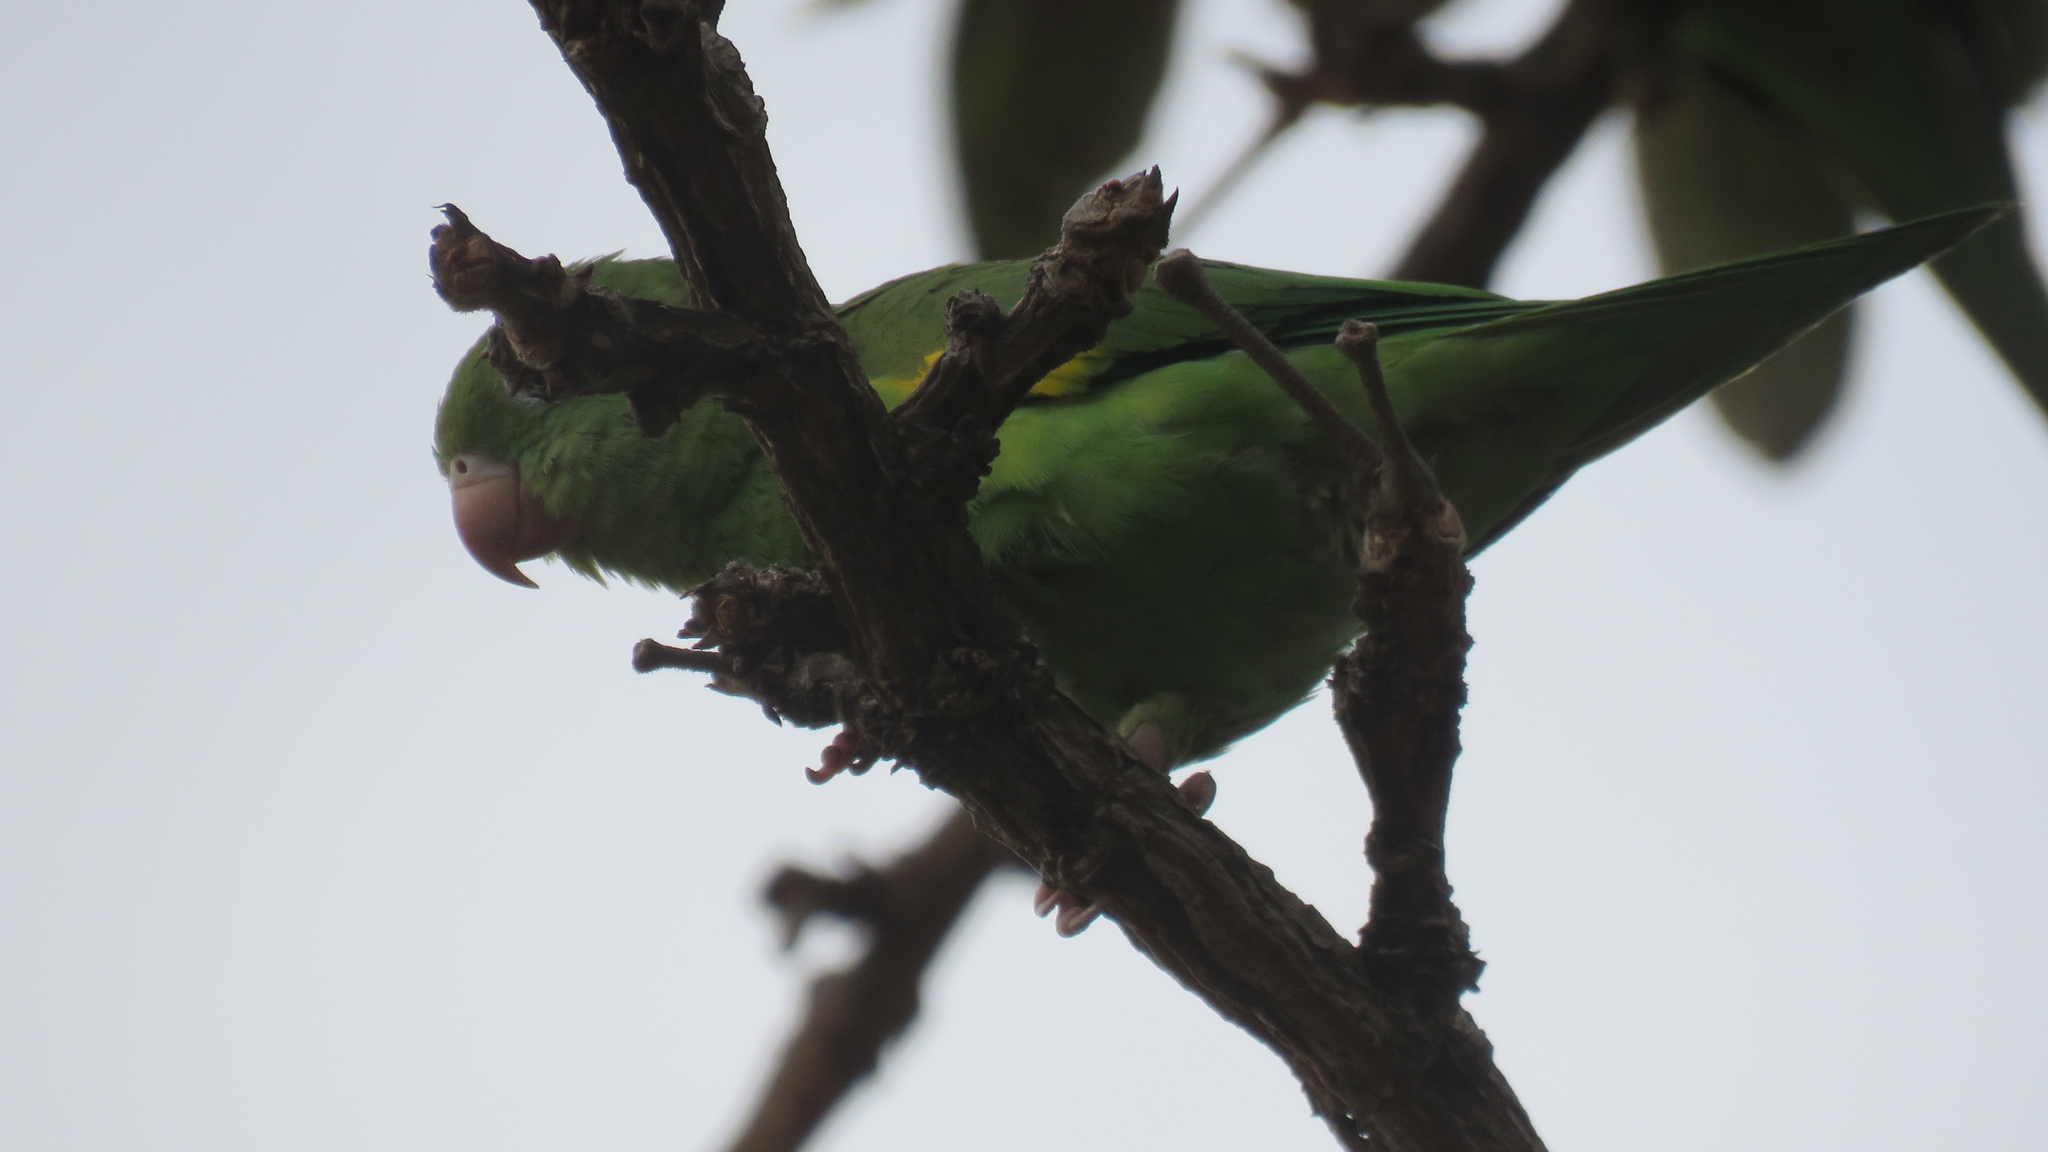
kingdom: Animalia
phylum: Chordata
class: Aves
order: Psittaciformes
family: Psittacidae
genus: Brotogeris
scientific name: Brotogeris chiriri
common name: Yellow-chevroned parakeet
